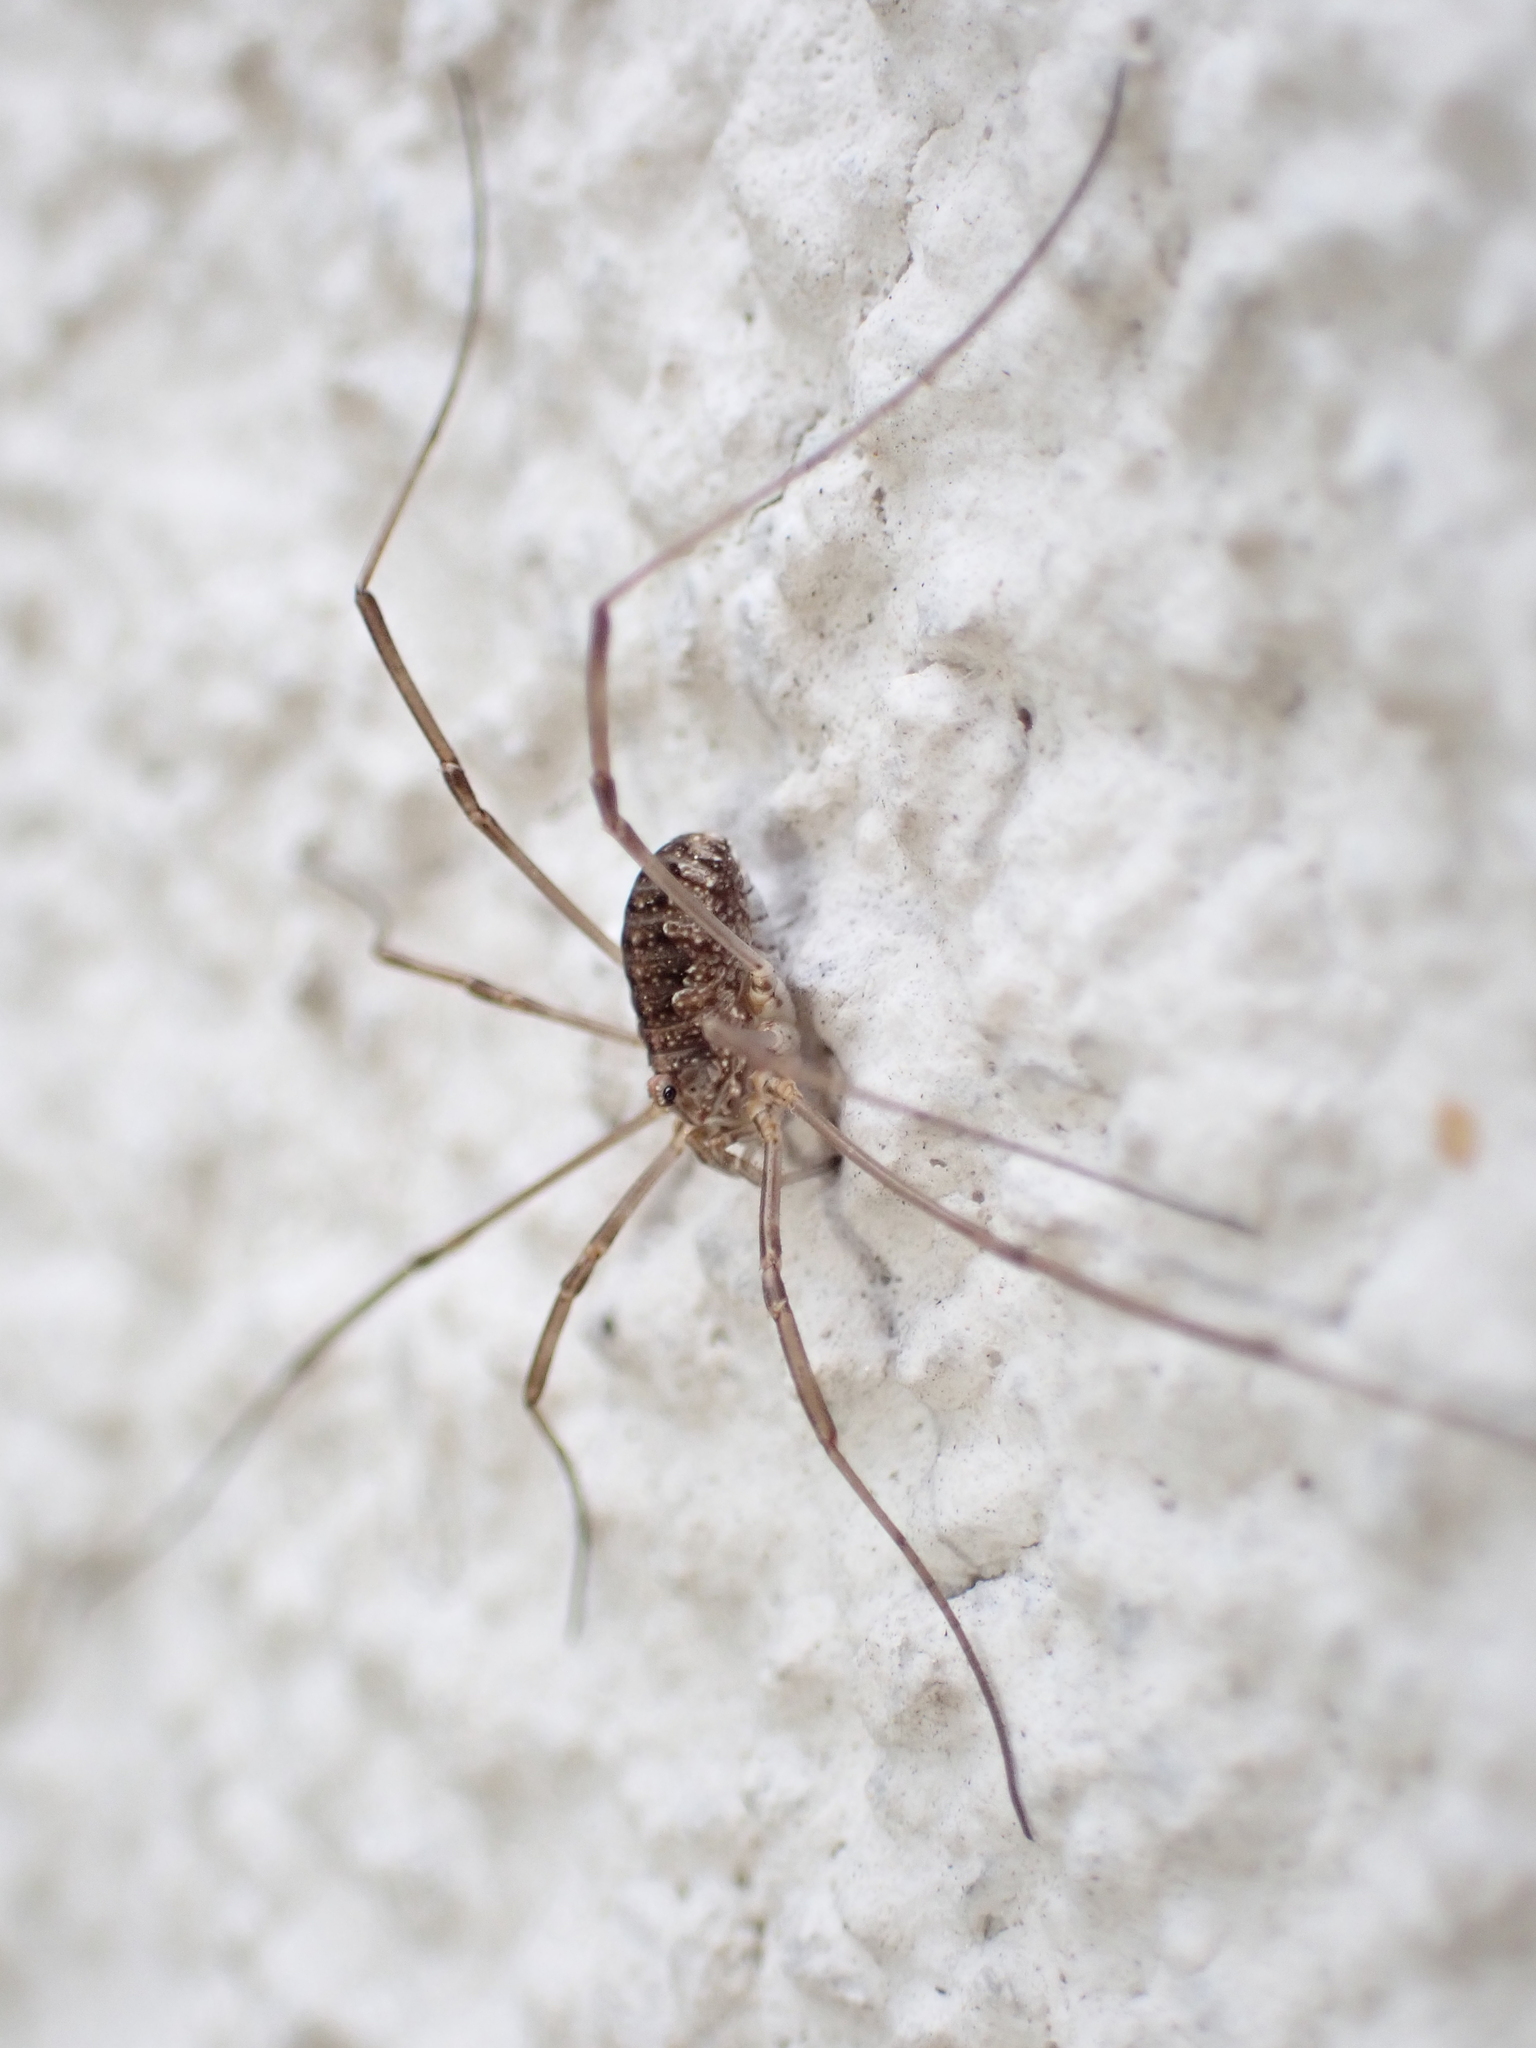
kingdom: Animalia
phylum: Arthropoda
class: Arachnida
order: Opiliones
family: Phalangiidae
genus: Phalangium
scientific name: Phalangium opilio
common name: Daddy longleg
